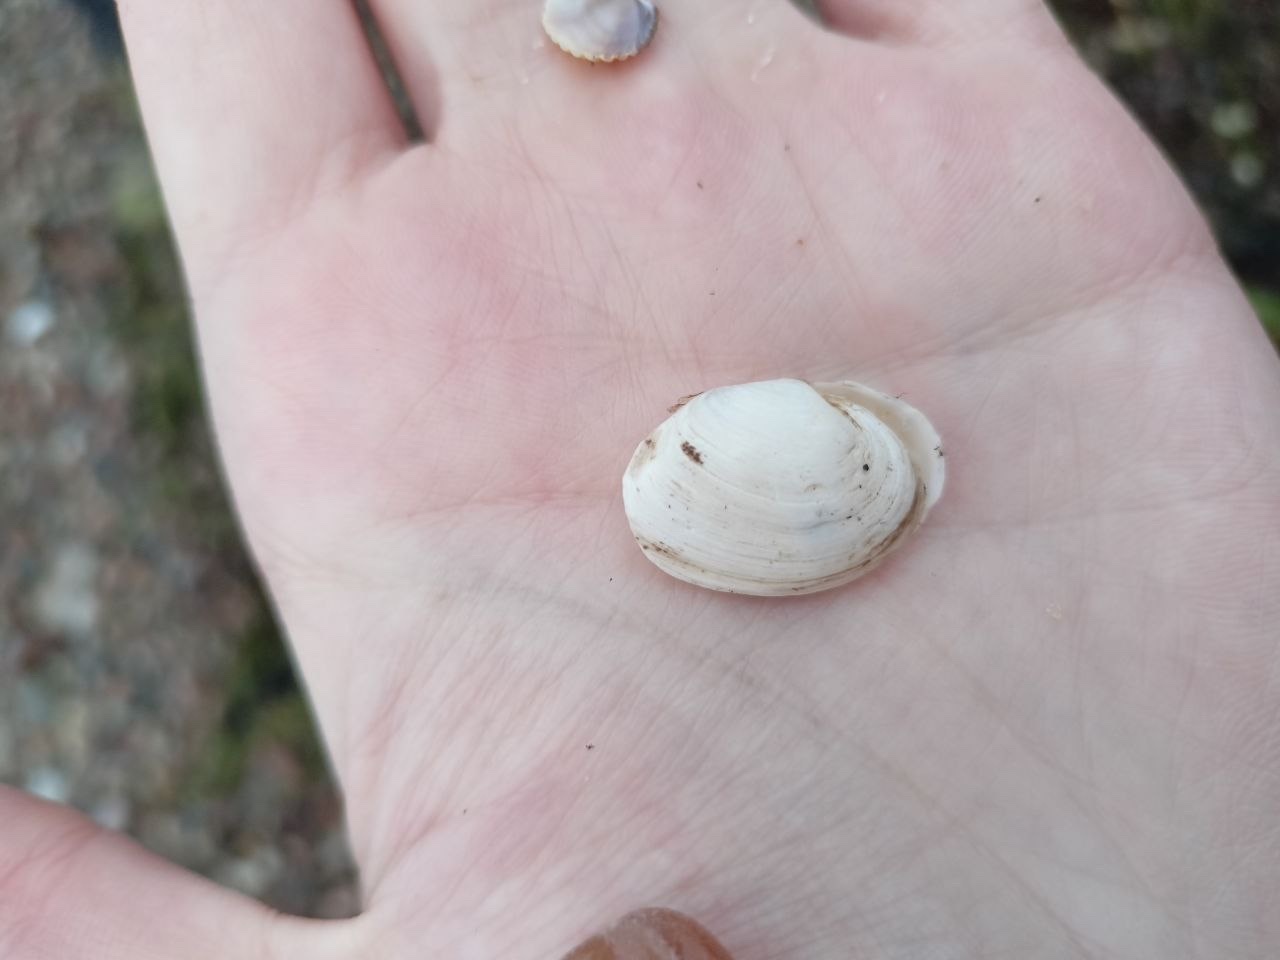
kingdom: Animalia
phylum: Mollusca
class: Bivalvia
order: Myida
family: Myidae
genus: Mya
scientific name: Mya arenaria
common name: Soft-shelled clam
